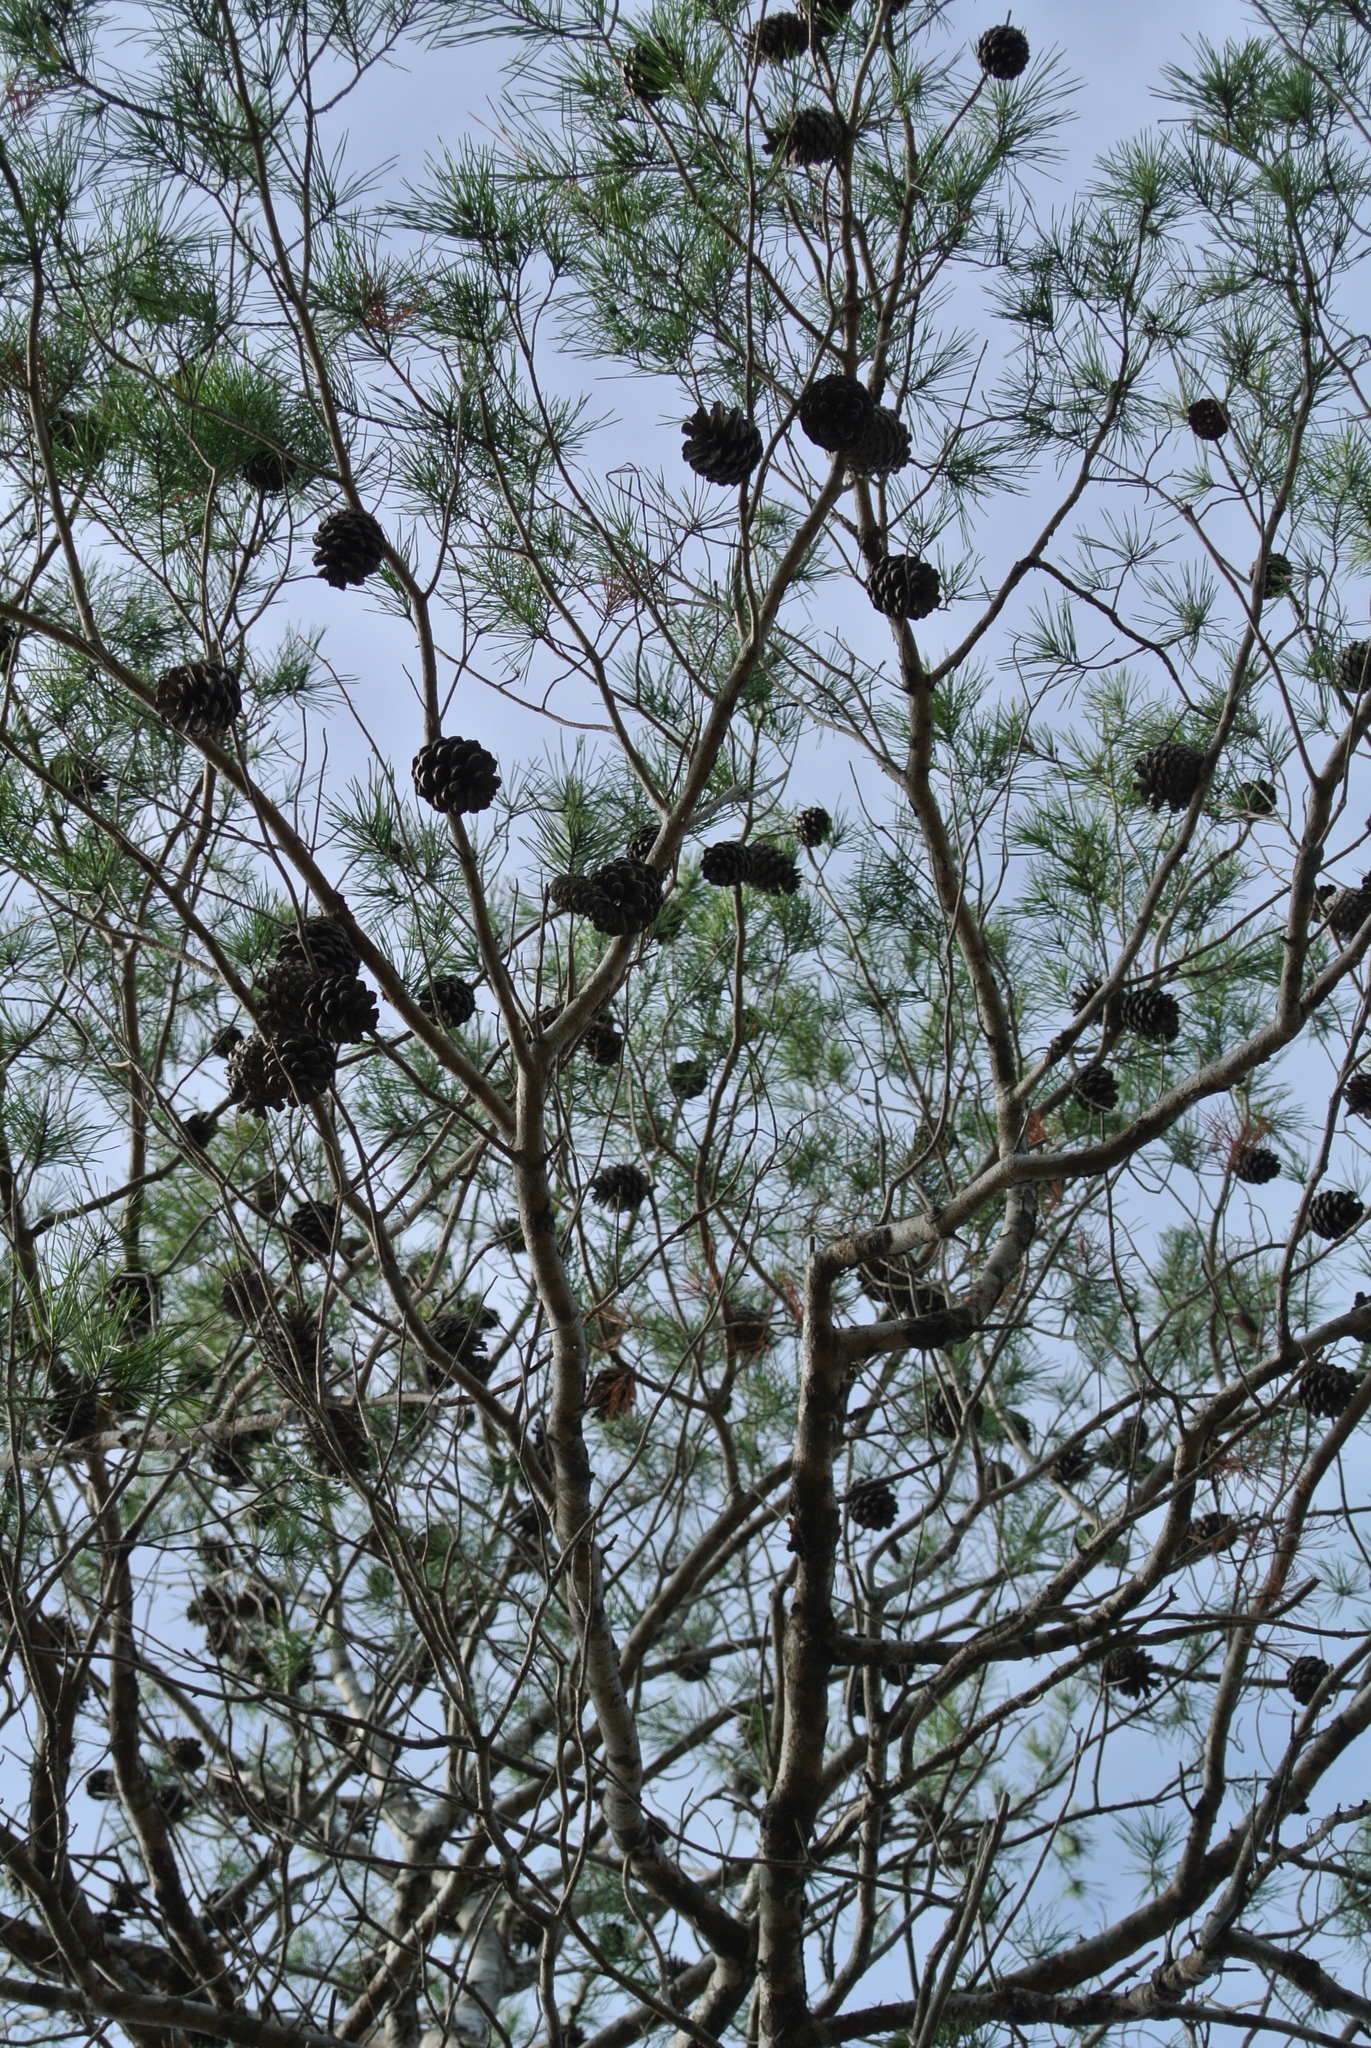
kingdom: Plantae
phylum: Tracheophyta
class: Pinopsida
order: Pinales
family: Pinaceae
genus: Pinus
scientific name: Pinus clausa
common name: Sand pine
